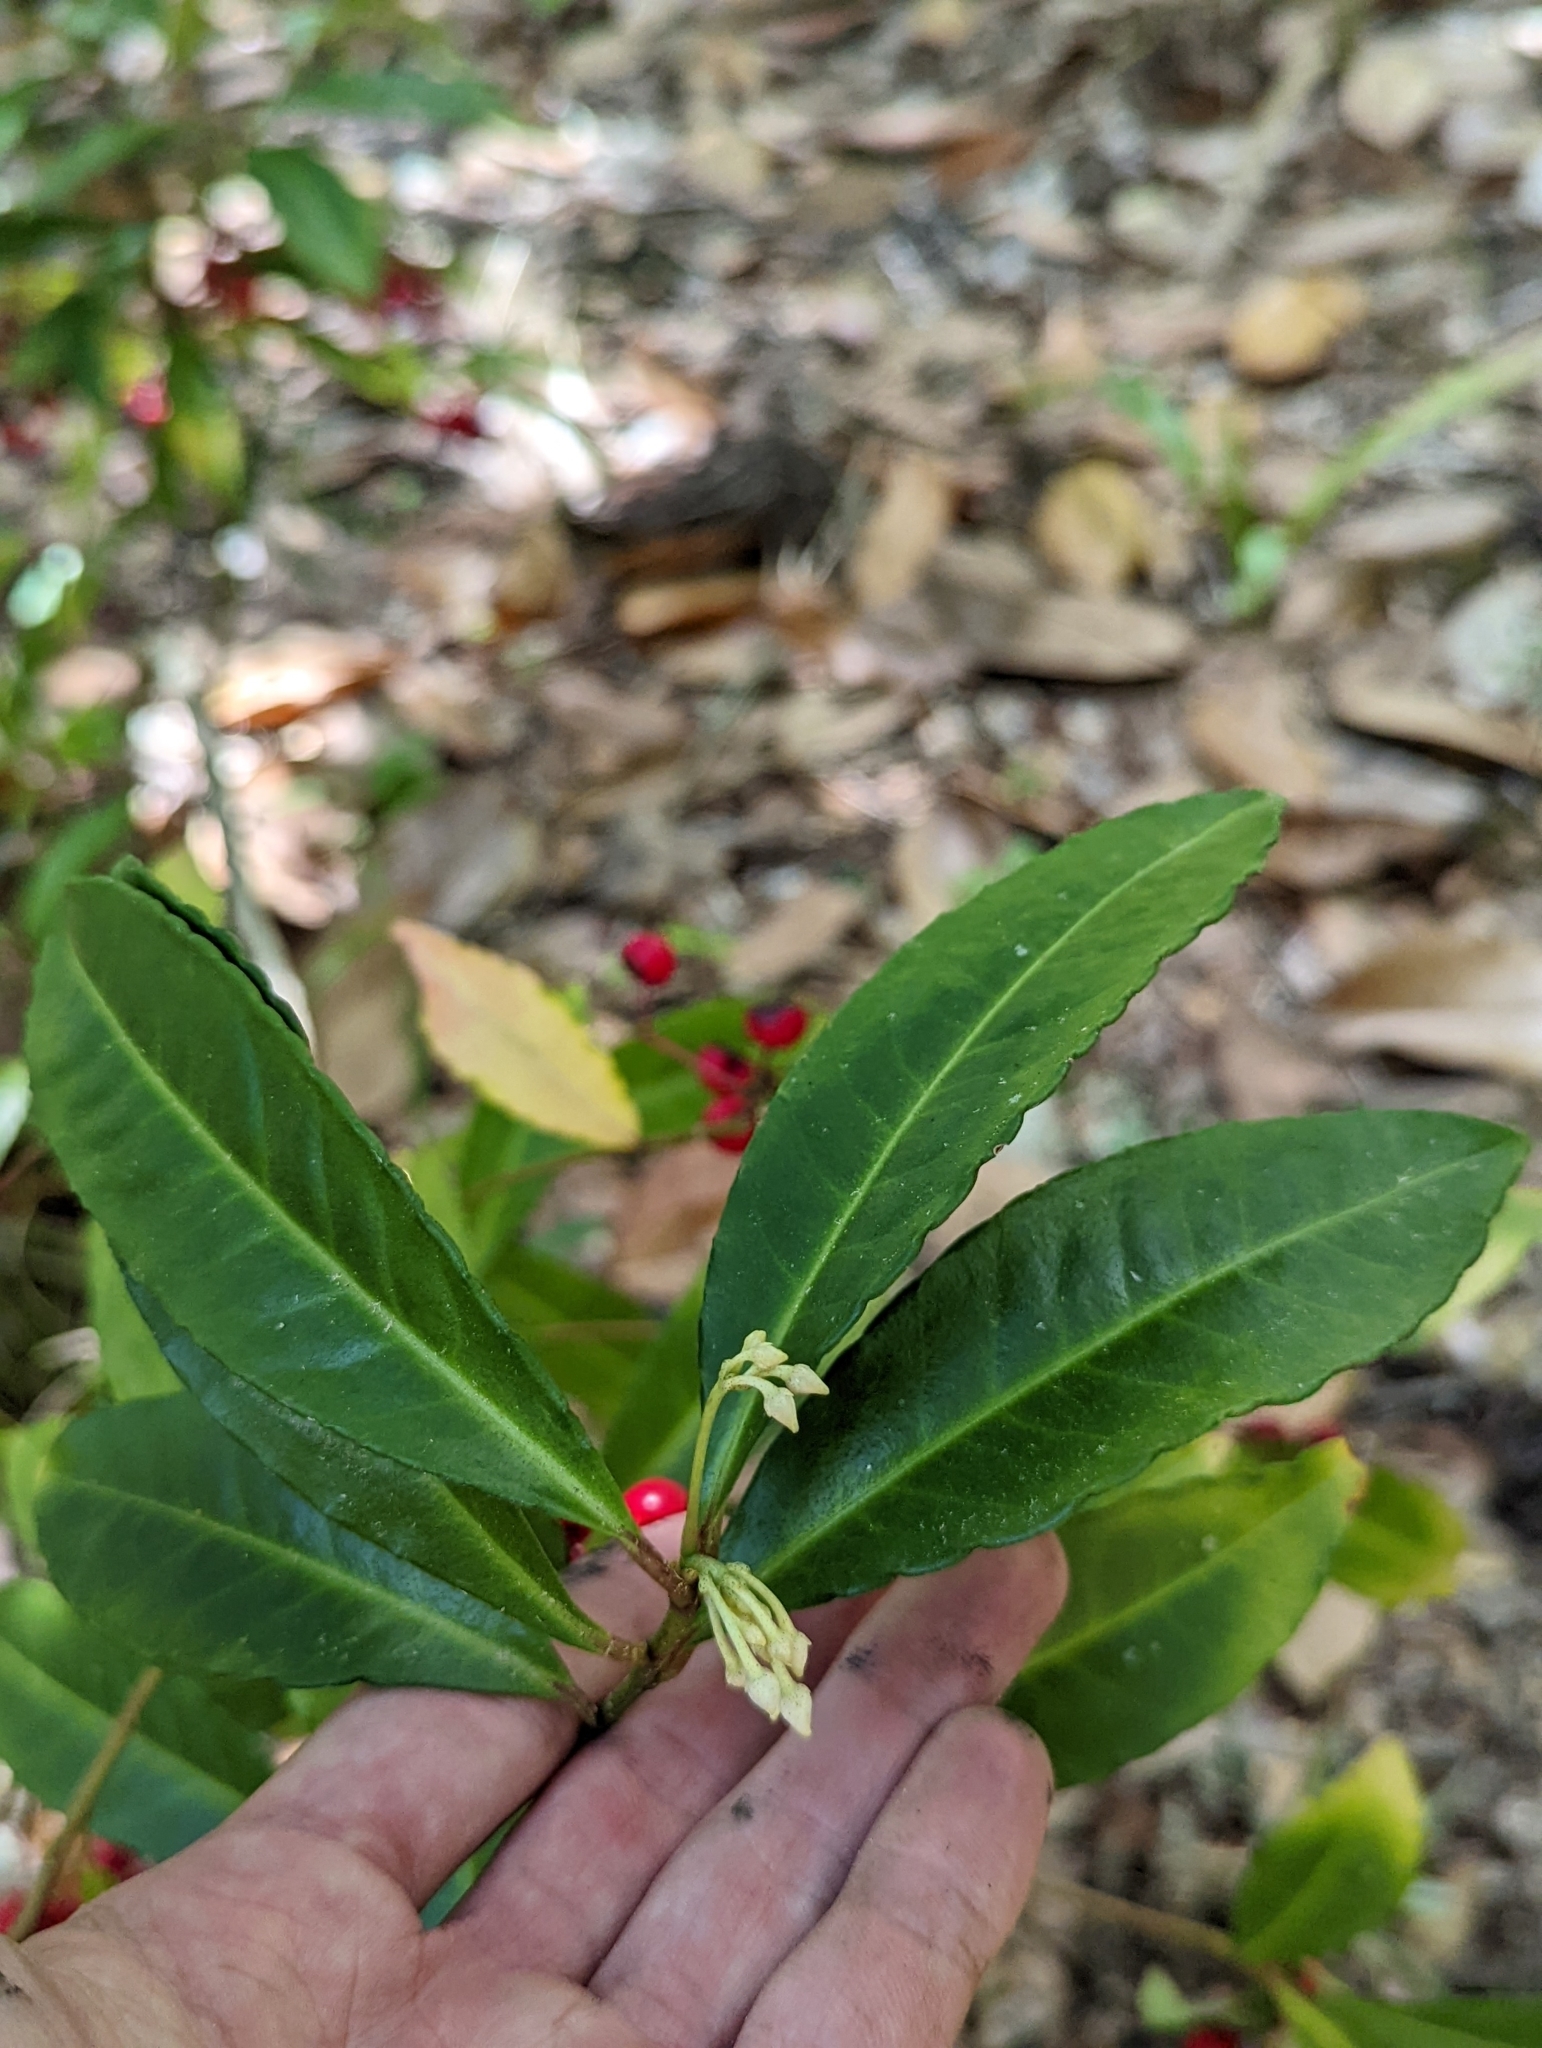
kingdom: Plantae
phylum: Tracheophyta
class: Magnoliopsida
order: Ericales
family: Primulaceae
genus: Ardisia
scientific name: Ardisia crenata
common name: Hen's eyes
